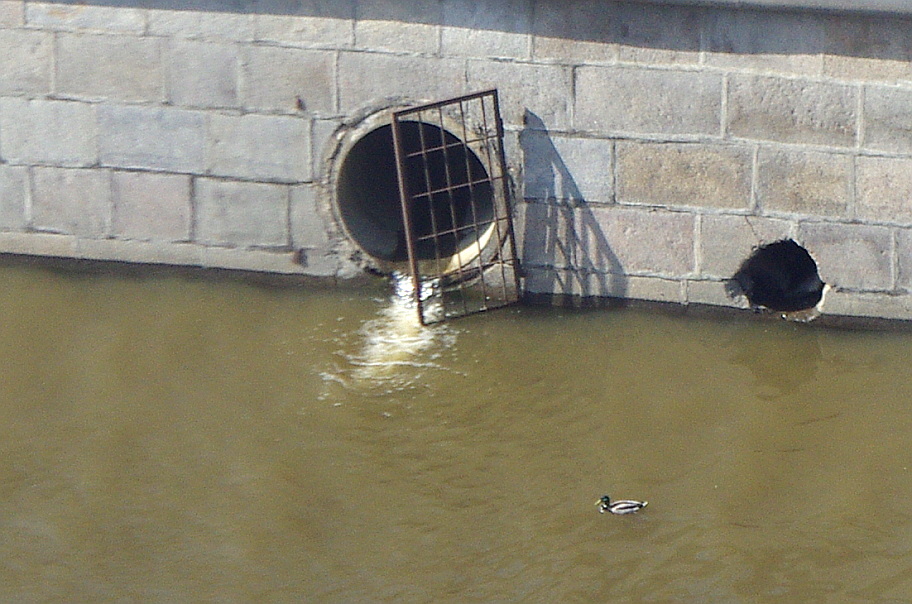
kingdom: Animalia
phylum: Chordata
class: Aves
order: Anseriformes
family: Anatidae
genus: Anas
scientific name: Anas platyrhynchos
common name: Mallard
